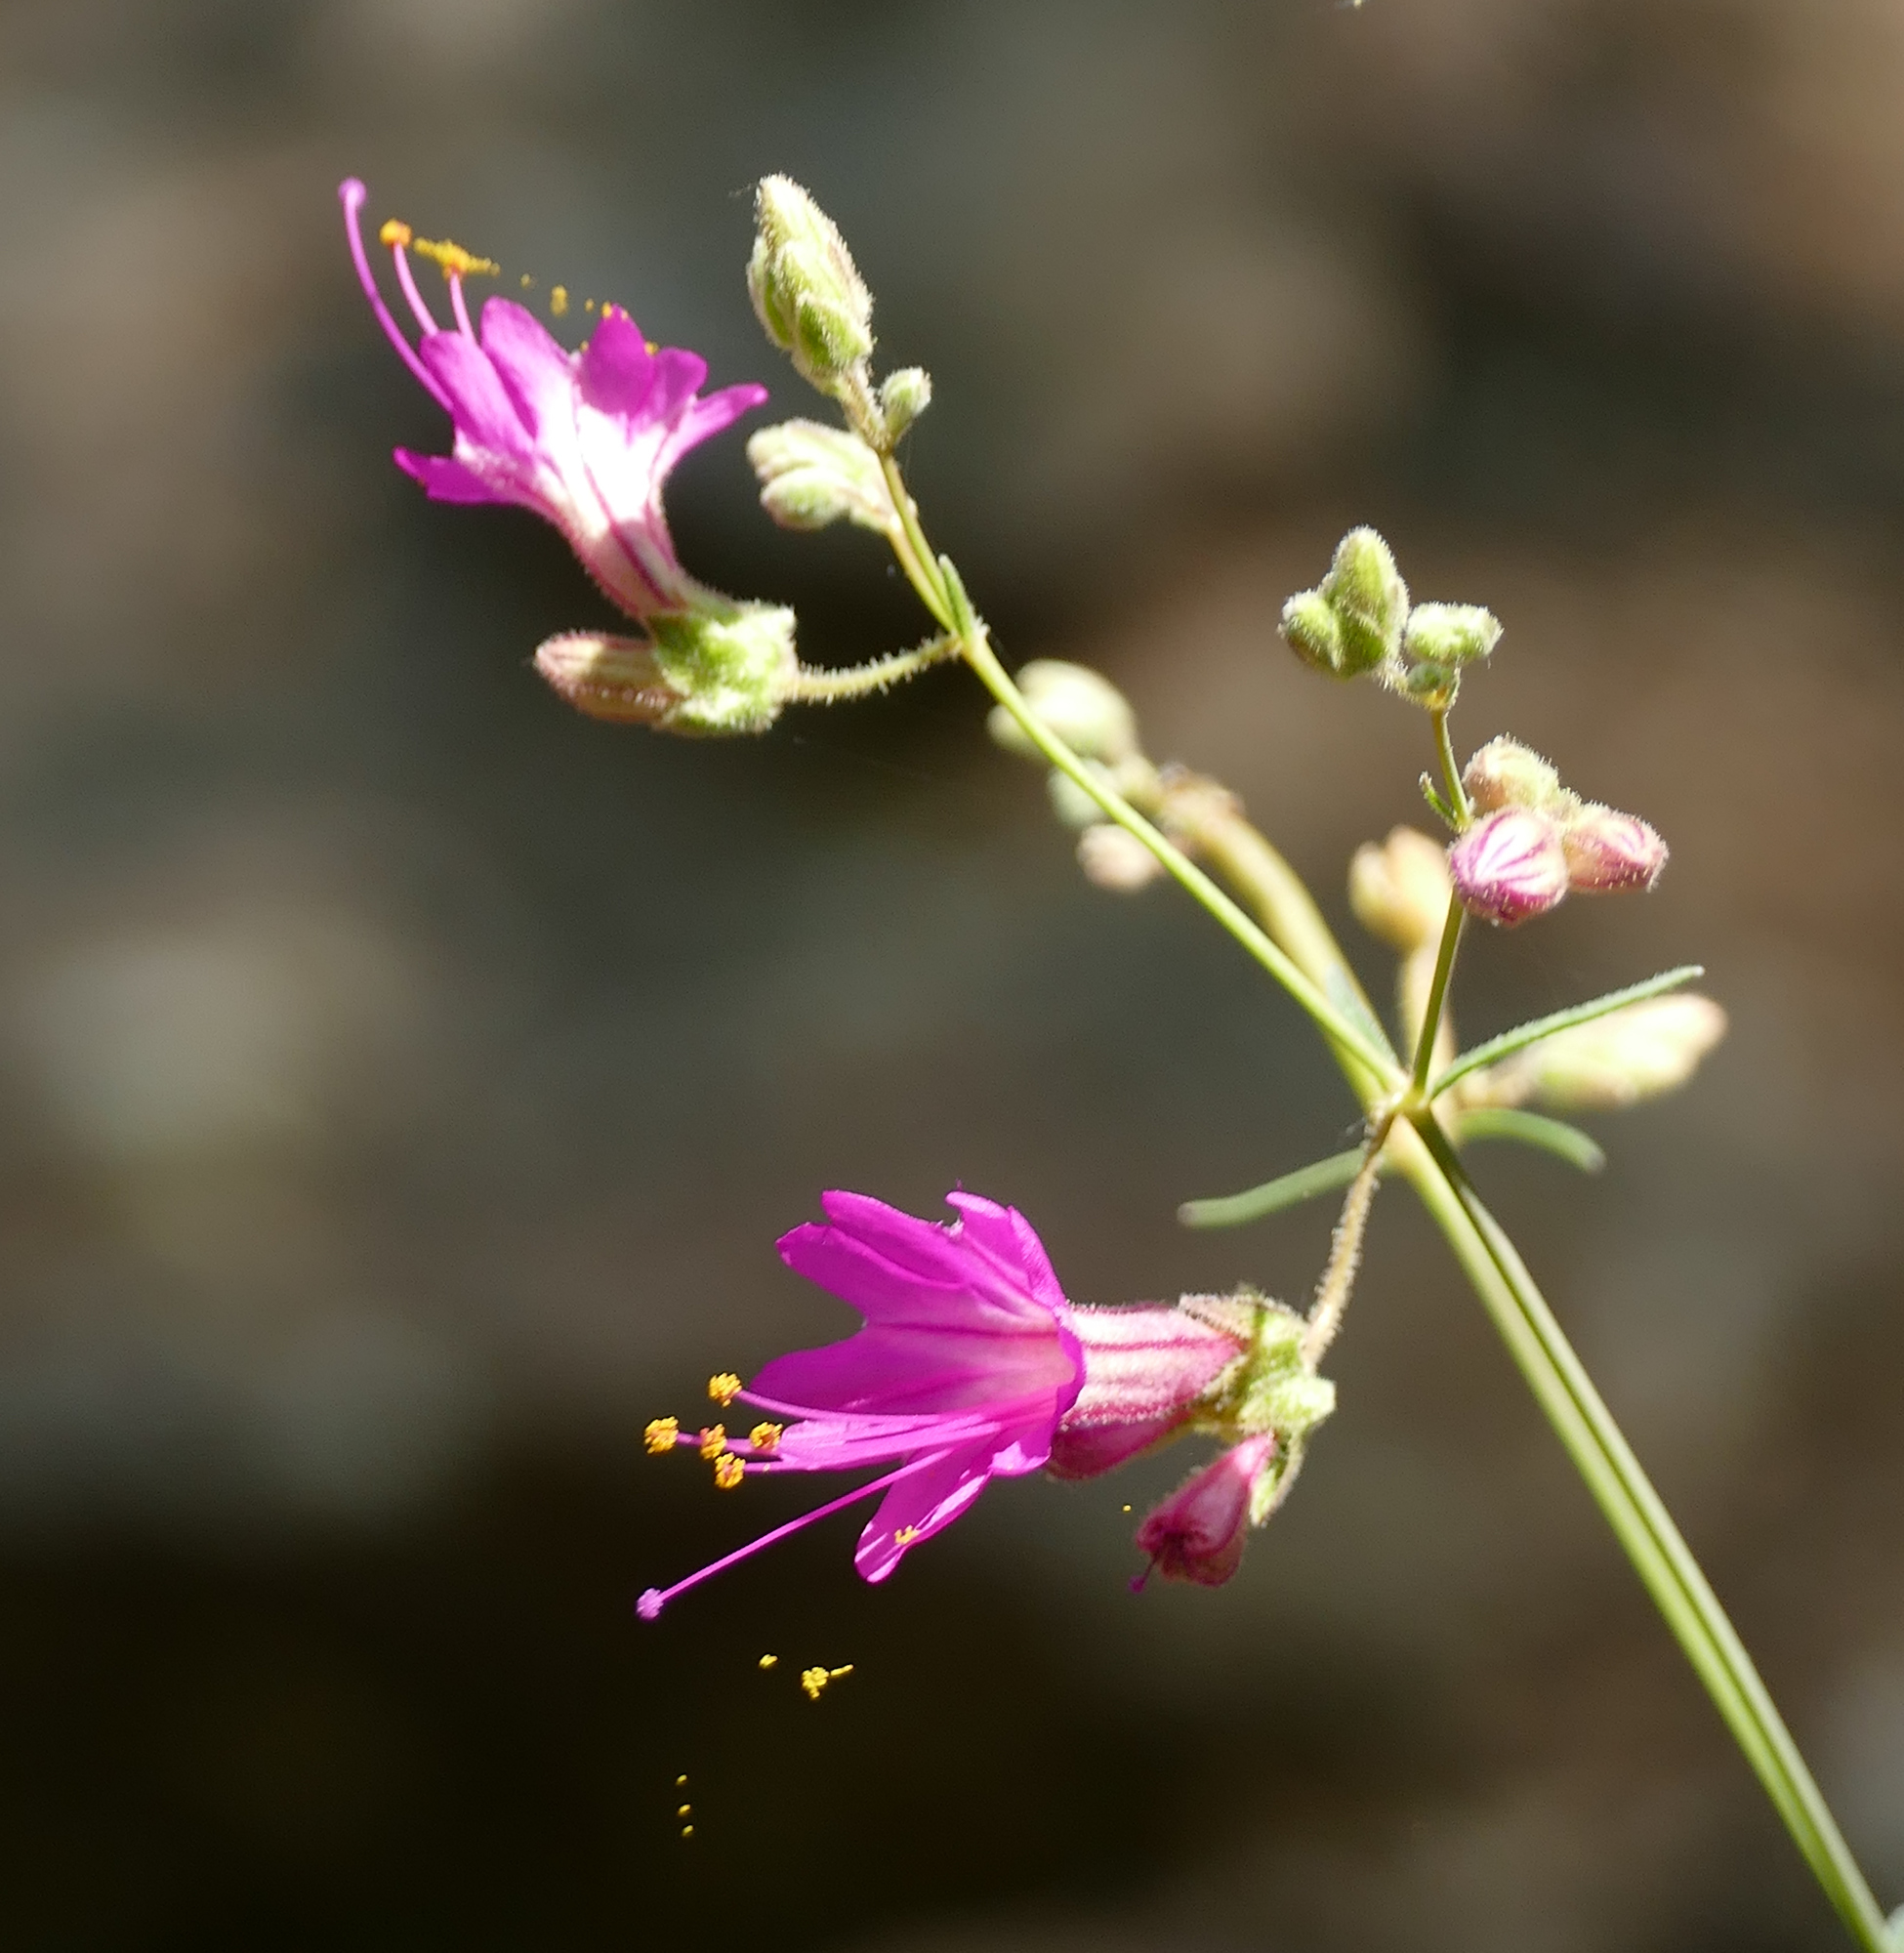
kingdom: Plantae
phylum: Tracheophyta
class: Magnoliopsida
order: Caryophyllales
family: Nyctaginaceae
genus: Mirabilis
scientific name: Mirabilis coccinea
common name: Scarlet four-o'clock
